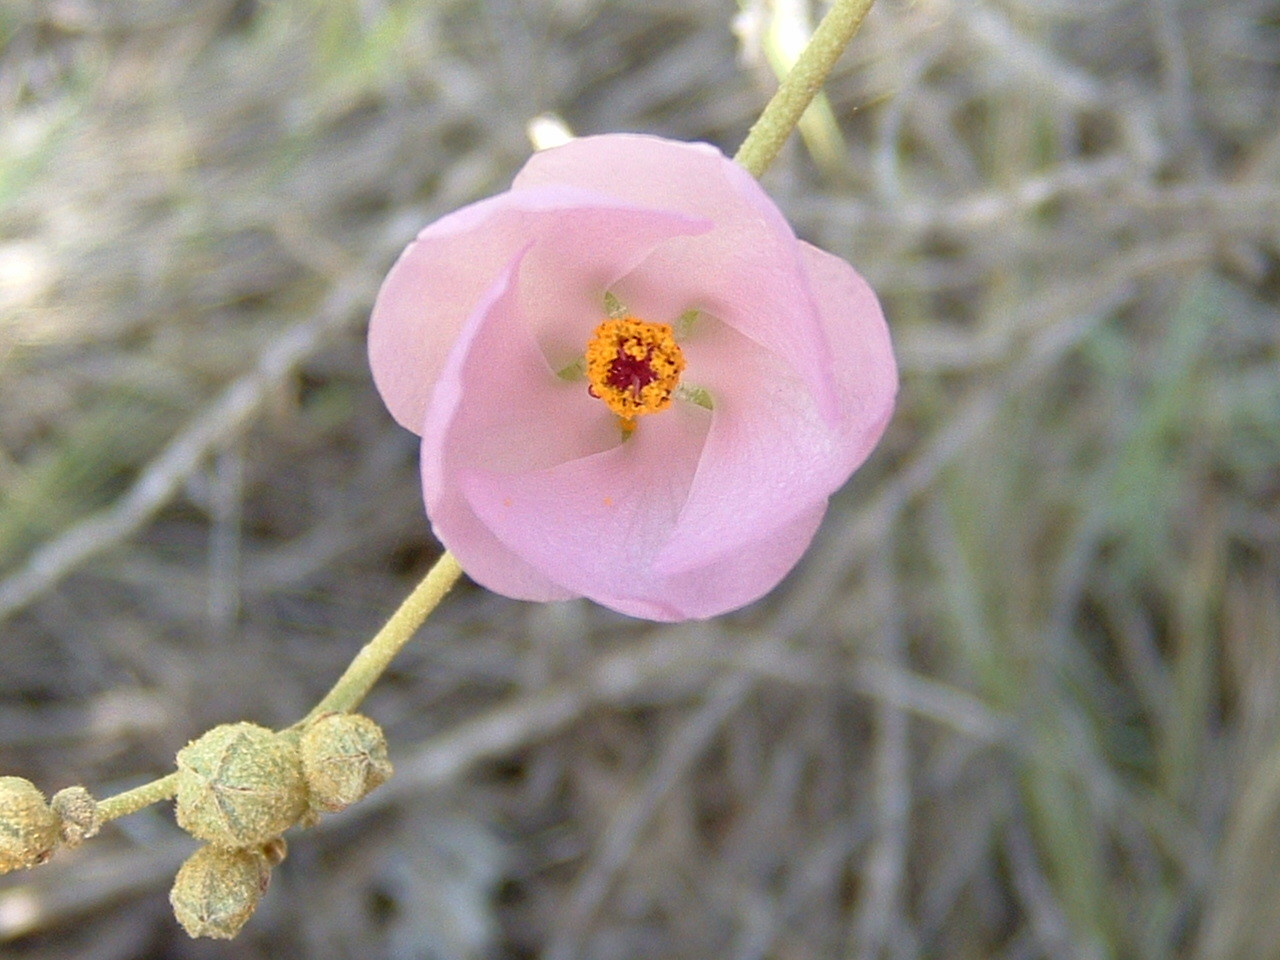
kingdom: Plantae
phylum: Tracheophyta
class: Magnoliopsida
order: Malvales
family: Malvaceae
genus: Malacothamnus
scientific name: Malacothamnus fasciculatus
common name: Sant cruz island bush-mallow
